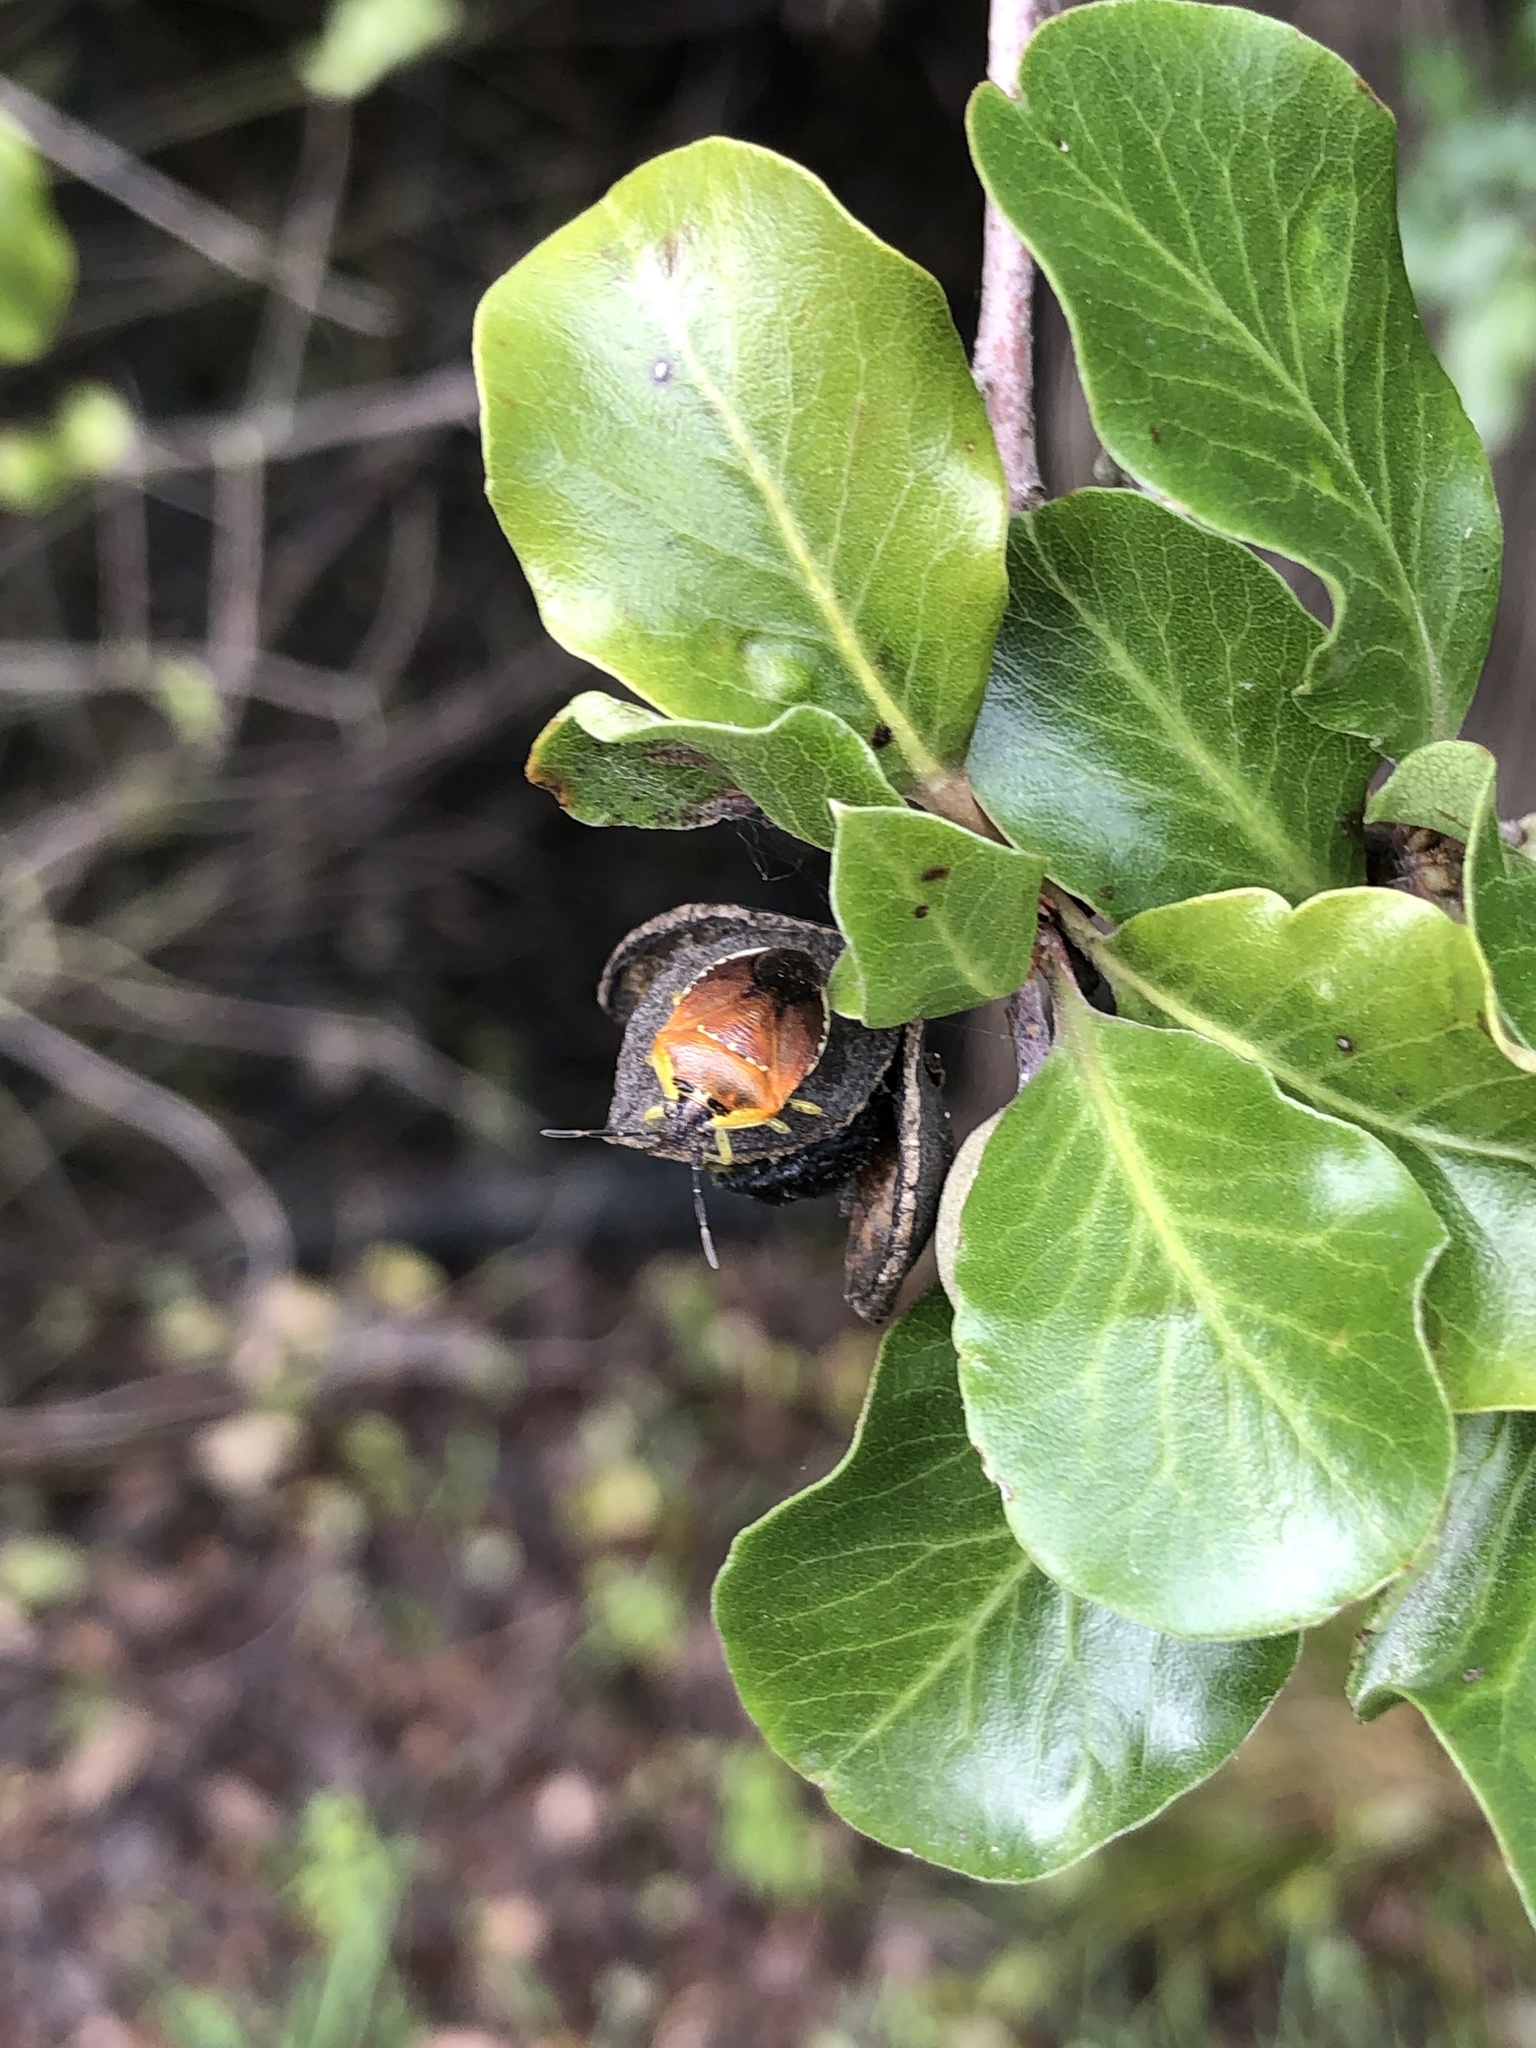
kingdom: Animalia
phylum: Arthropoda
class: Insecta
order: Hemiptera
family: Pentatomidae
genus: Monteithiella
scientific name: Monteithiella
